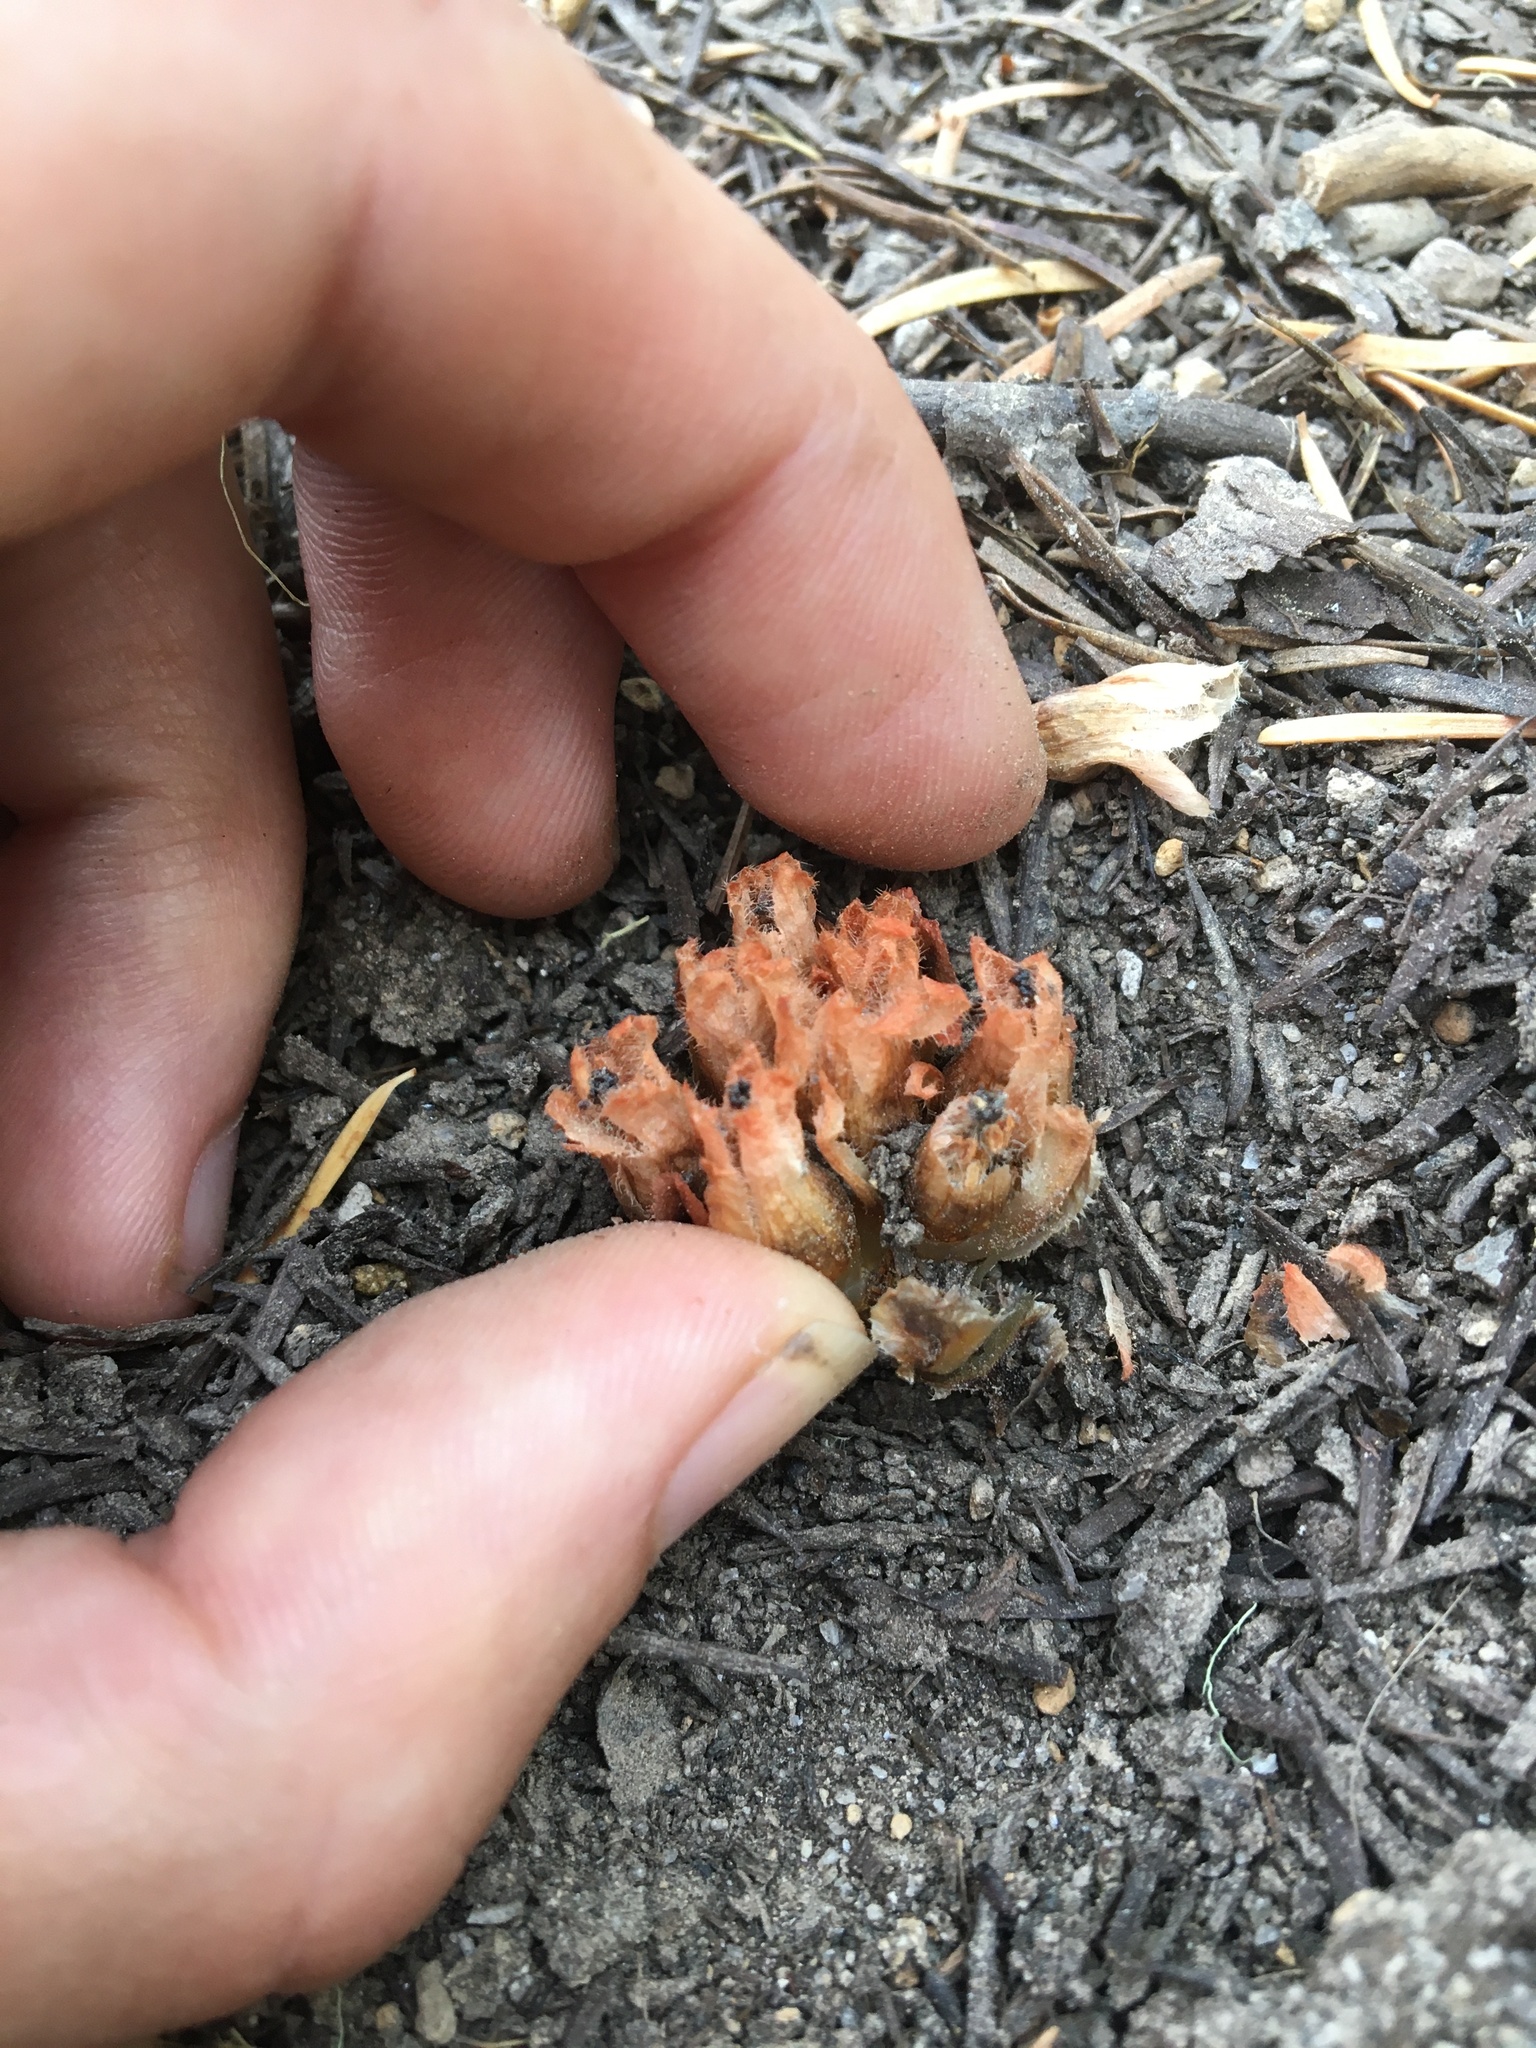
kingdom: Plantae
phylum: Tracheophyta
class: Magnoliopsida
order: Ericales
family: Ericaceae
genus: Hemitomes
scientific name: Hemitomes congestum
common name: Cone plant
